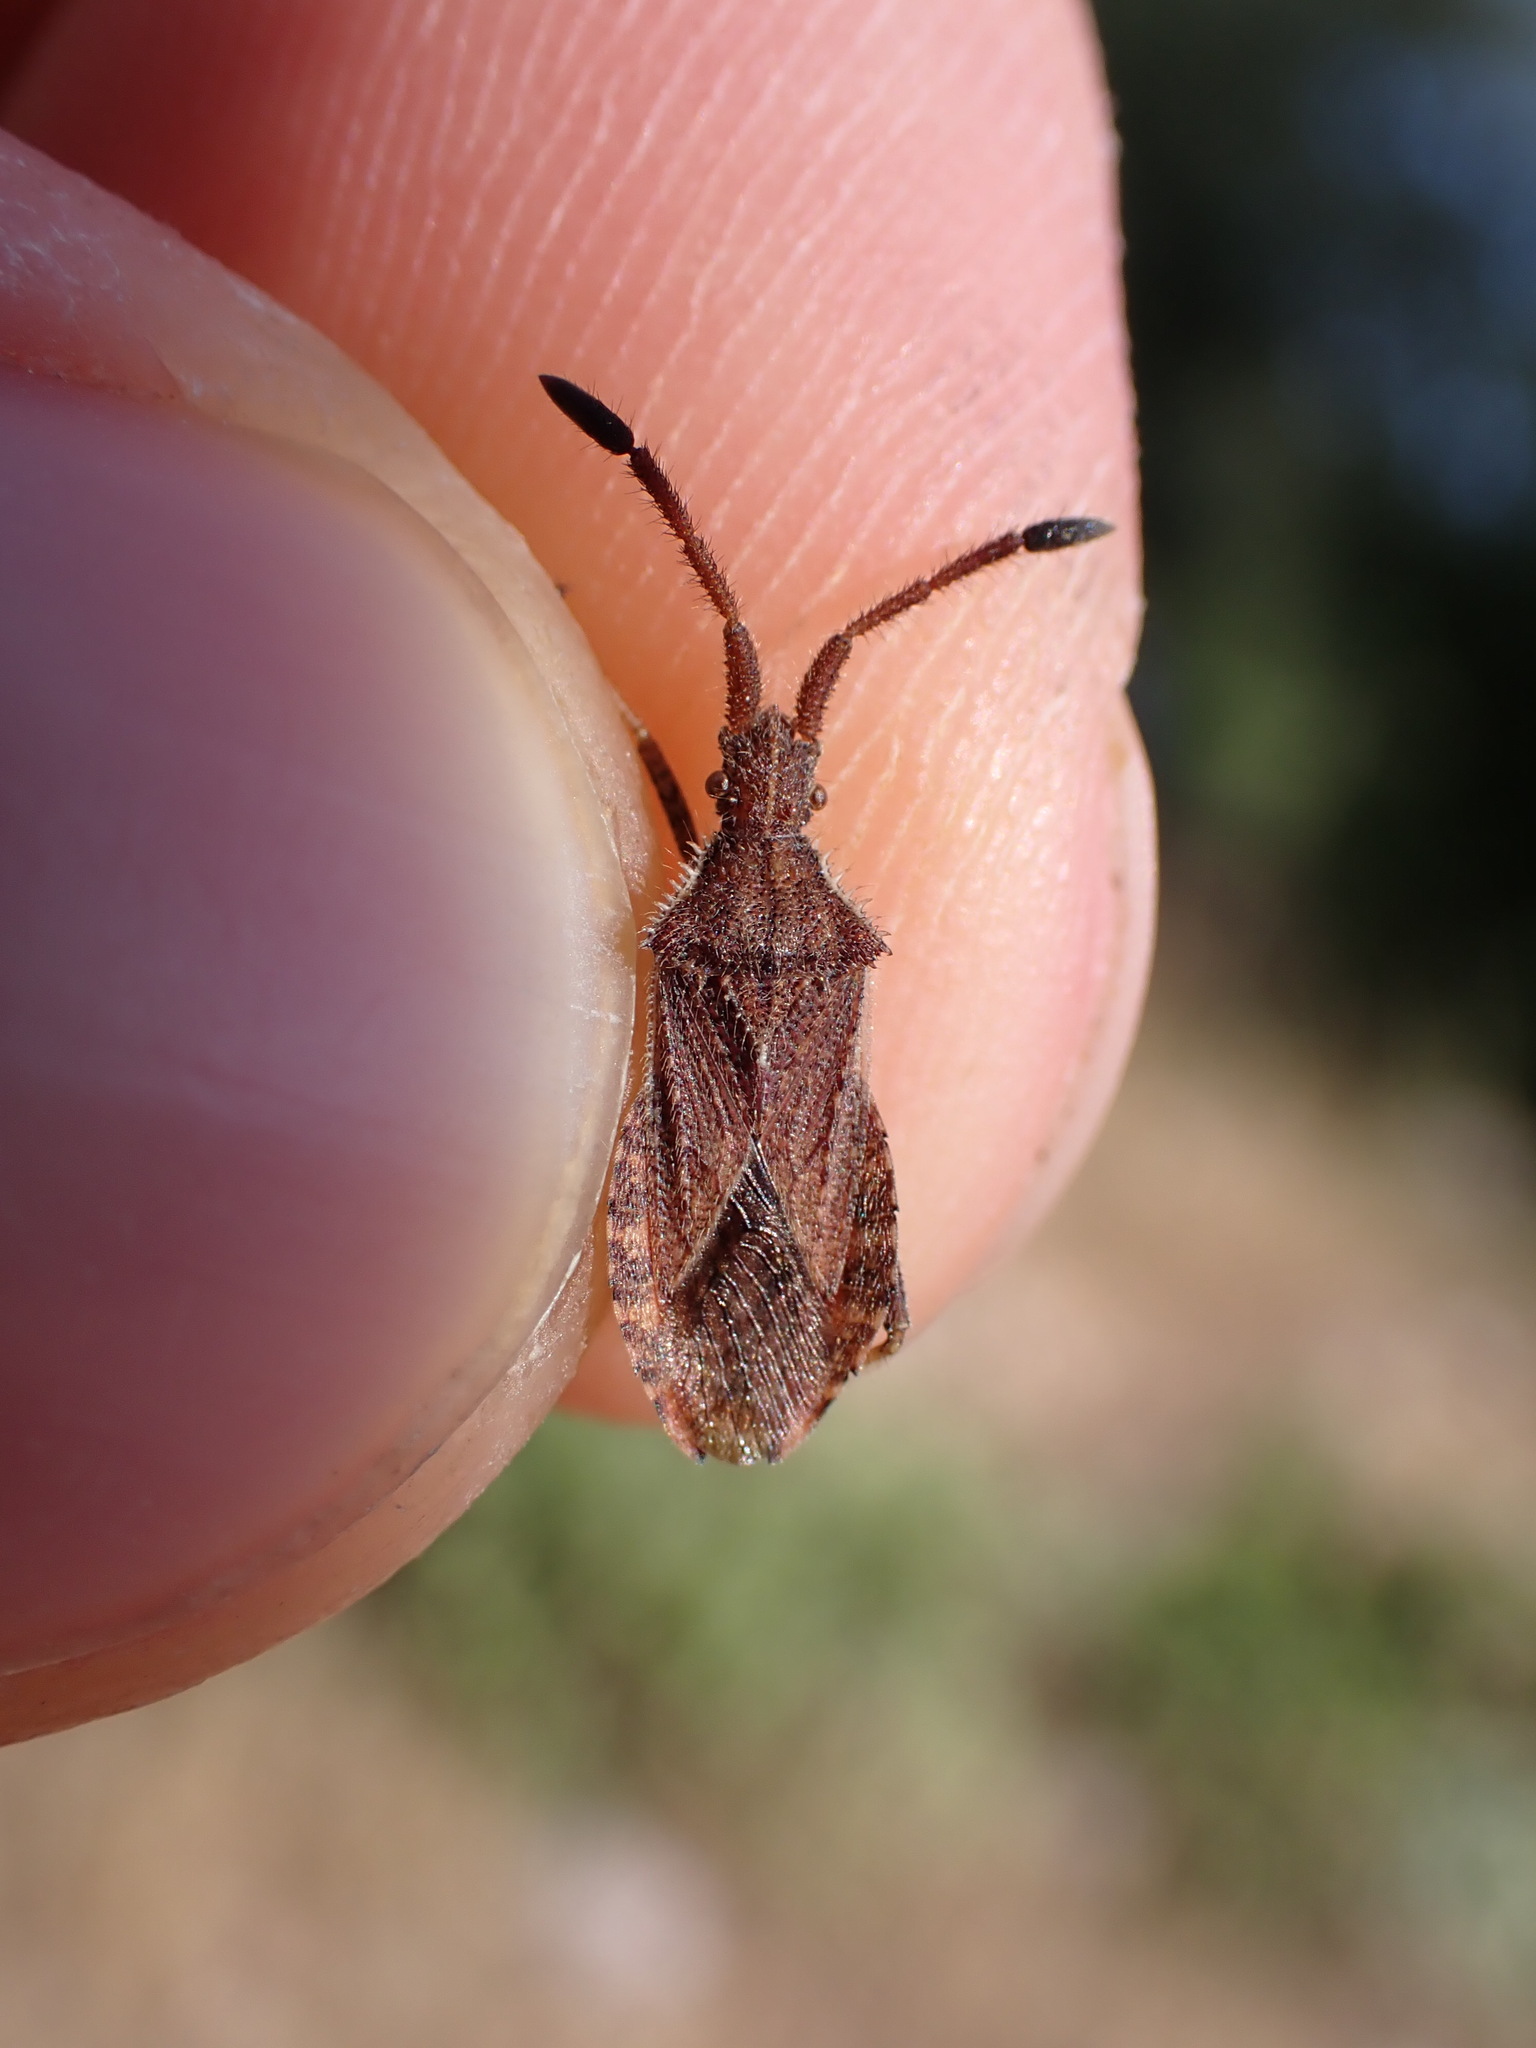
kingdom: Animalia
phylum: Arthropoda
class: Insecta
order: Hemiptera
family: Coreidae
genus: Coriomeris
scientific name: Coriomeris denticulatus
